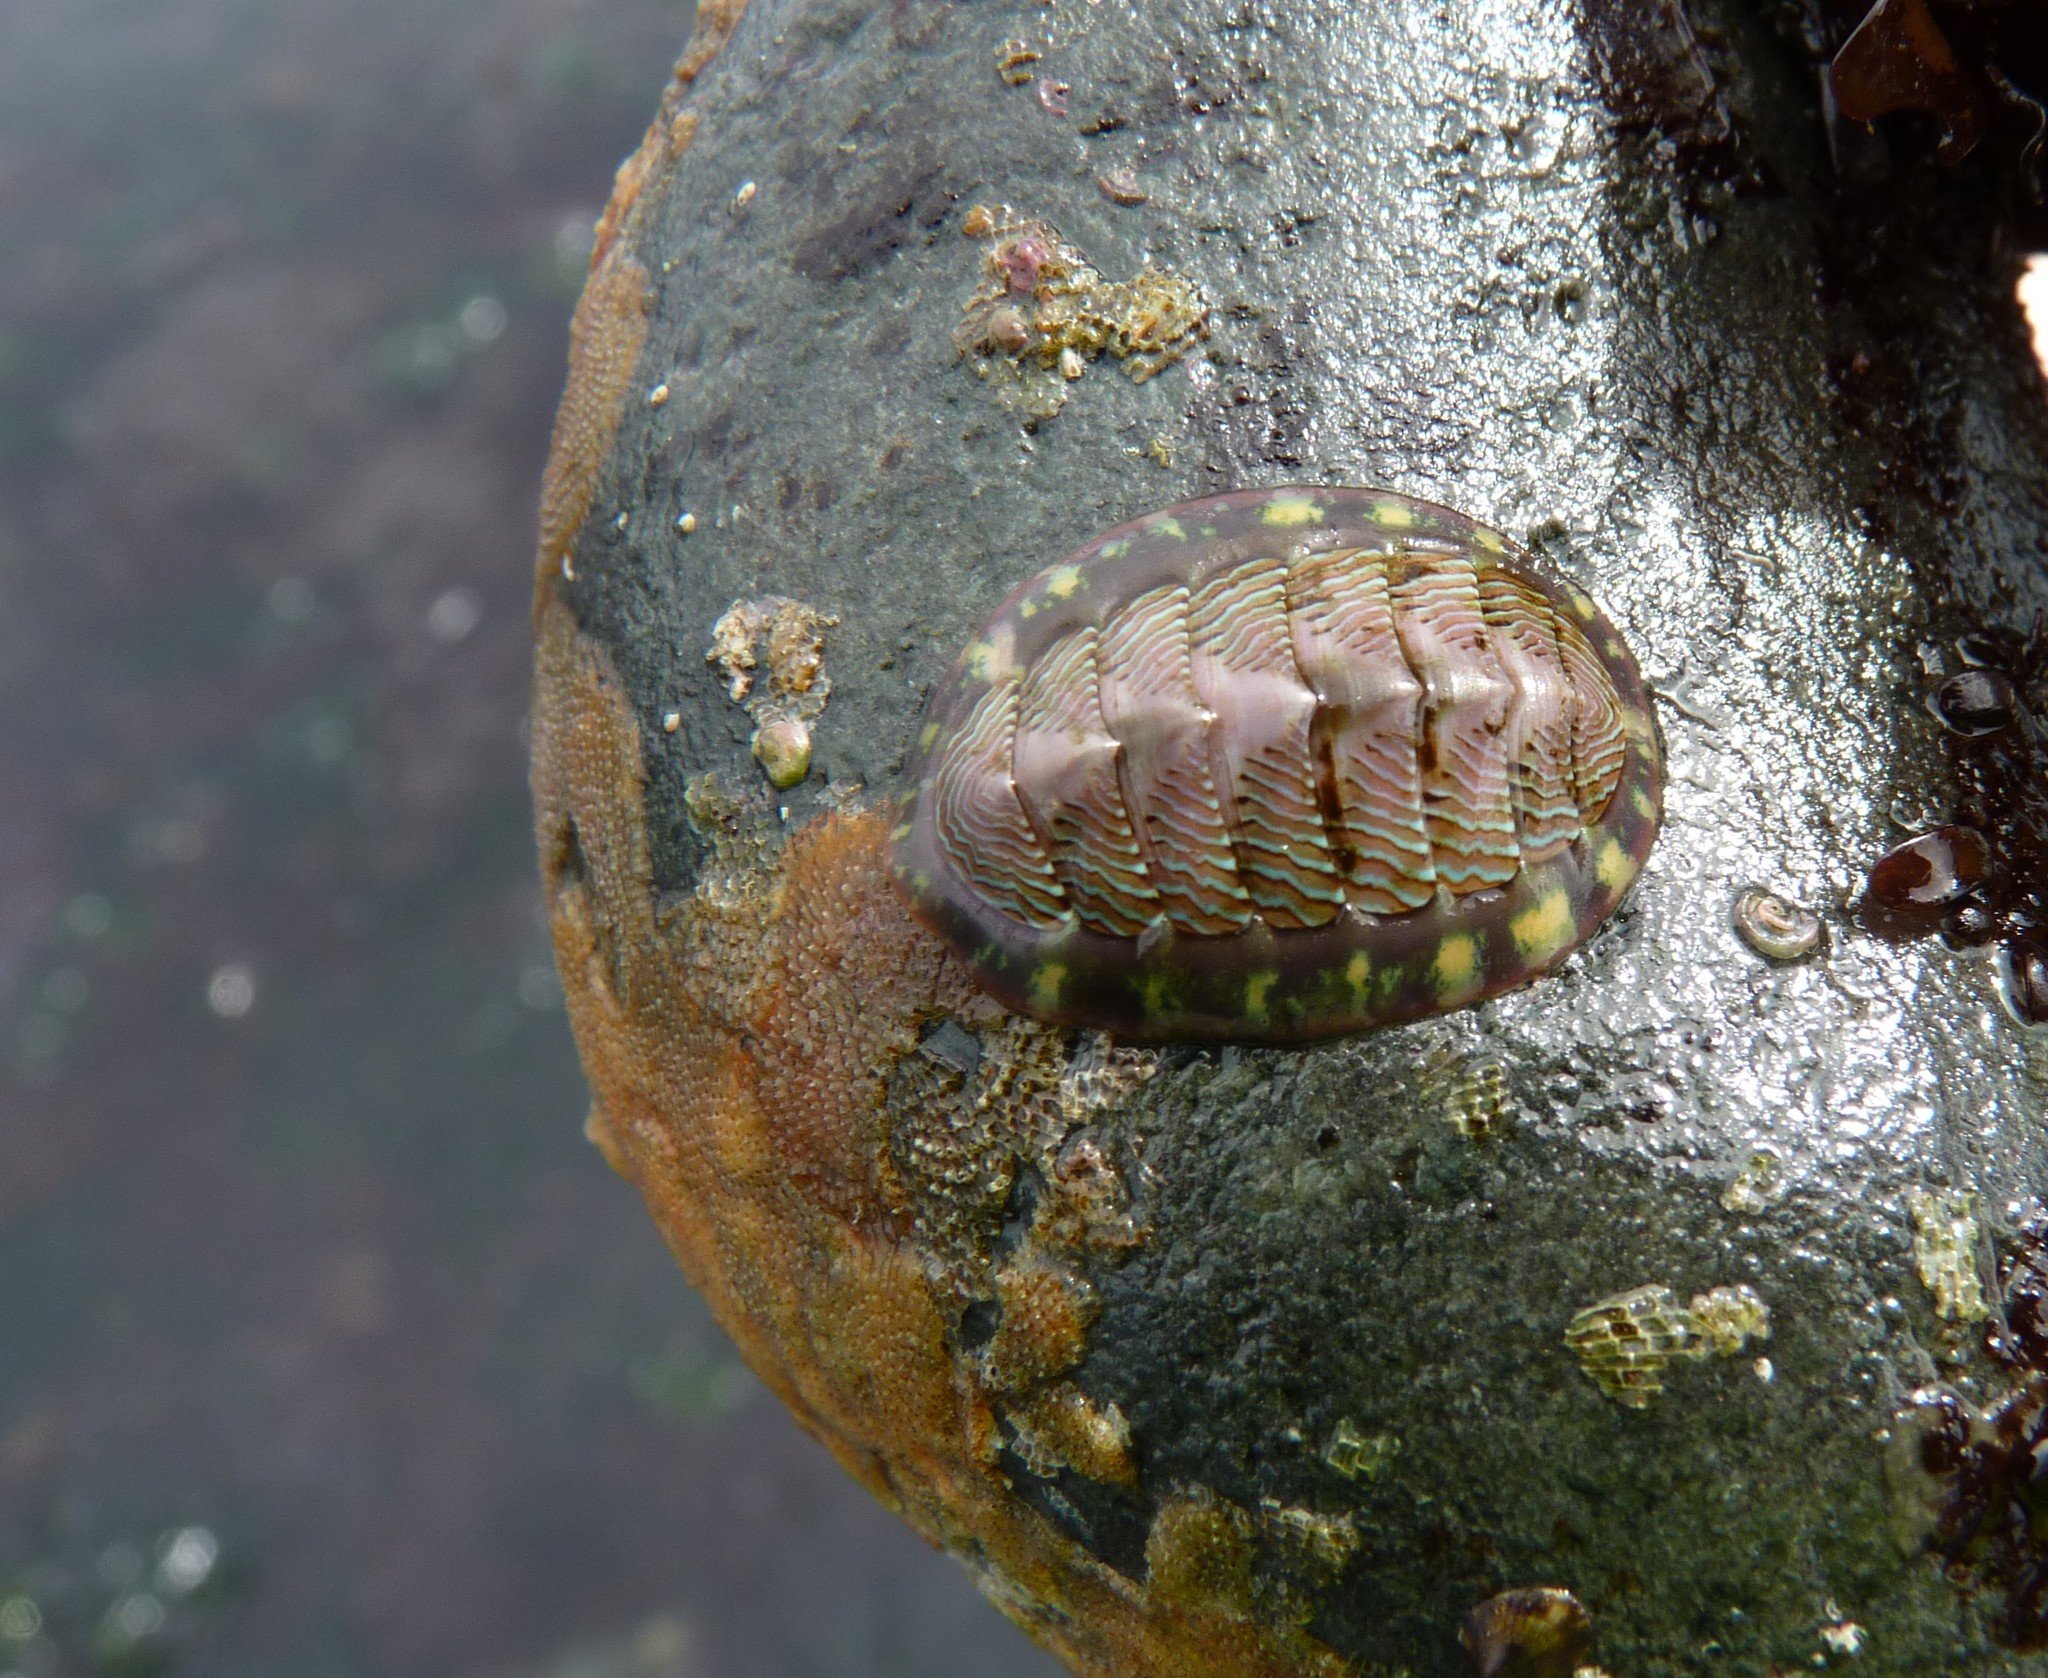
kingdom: Animalia
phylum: Mollusca
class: Polyplacophora
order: Chitonida
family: Tonicellidae
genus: Tonicella
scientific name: Tonicella lineata
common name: Lined chiton
